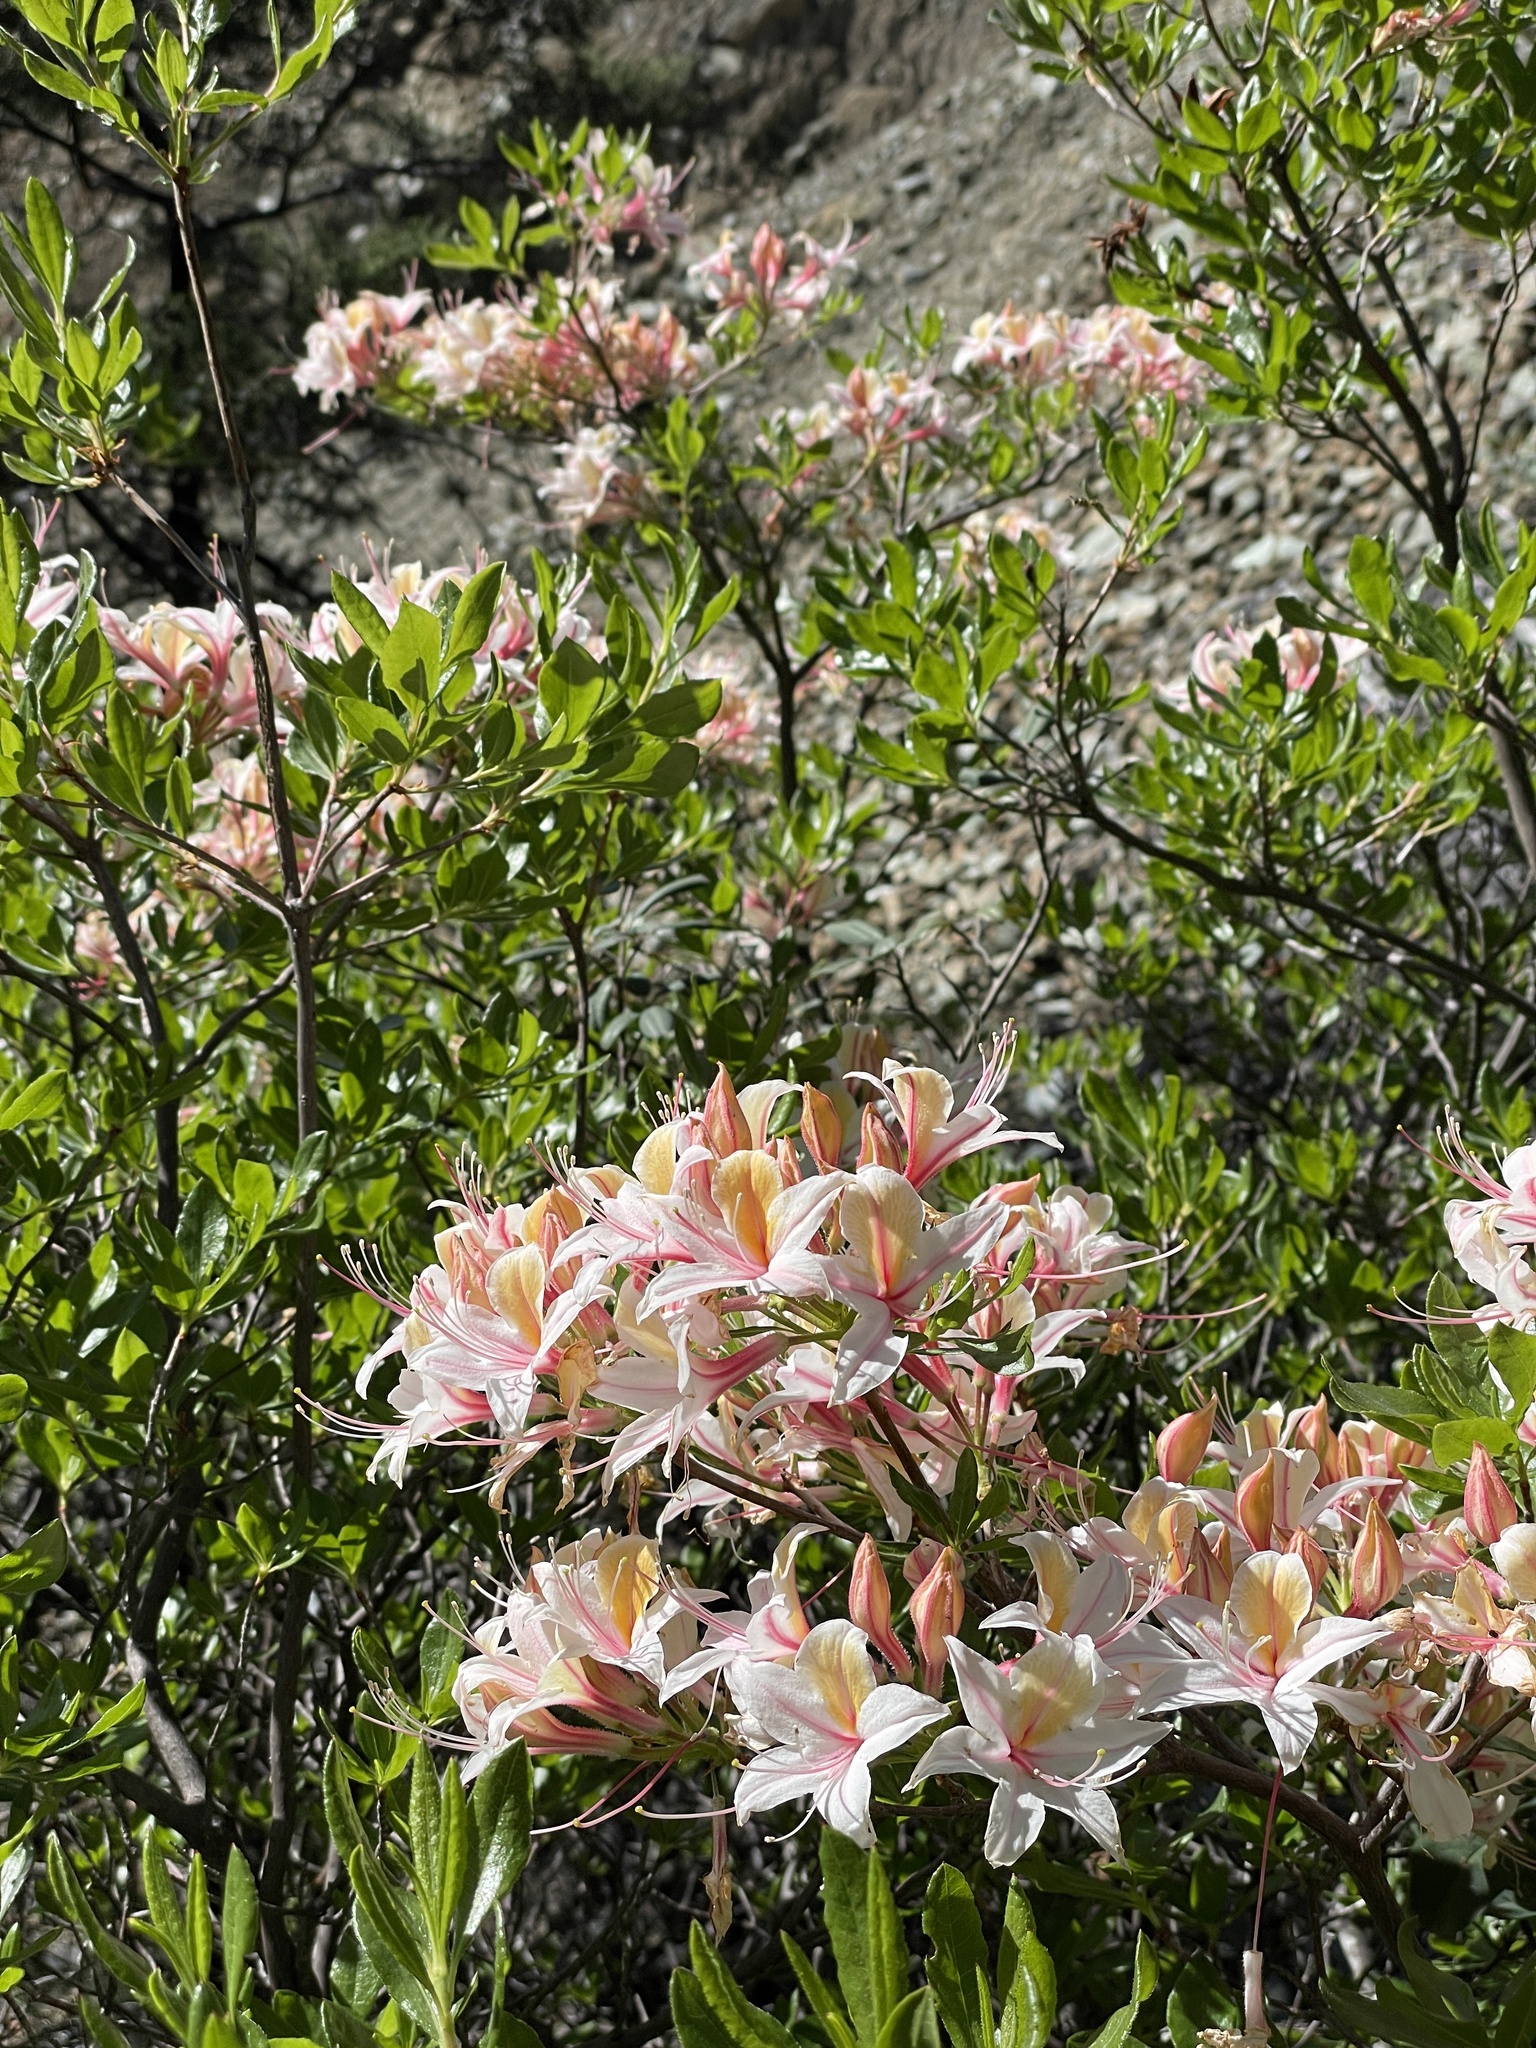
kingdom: Plantae
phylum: Tracheophyta
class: Magnoliopsida
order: Ericales
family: Ericaceae
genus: Rhododendron
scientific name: Rhododendron occidentale
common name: Western azalea
